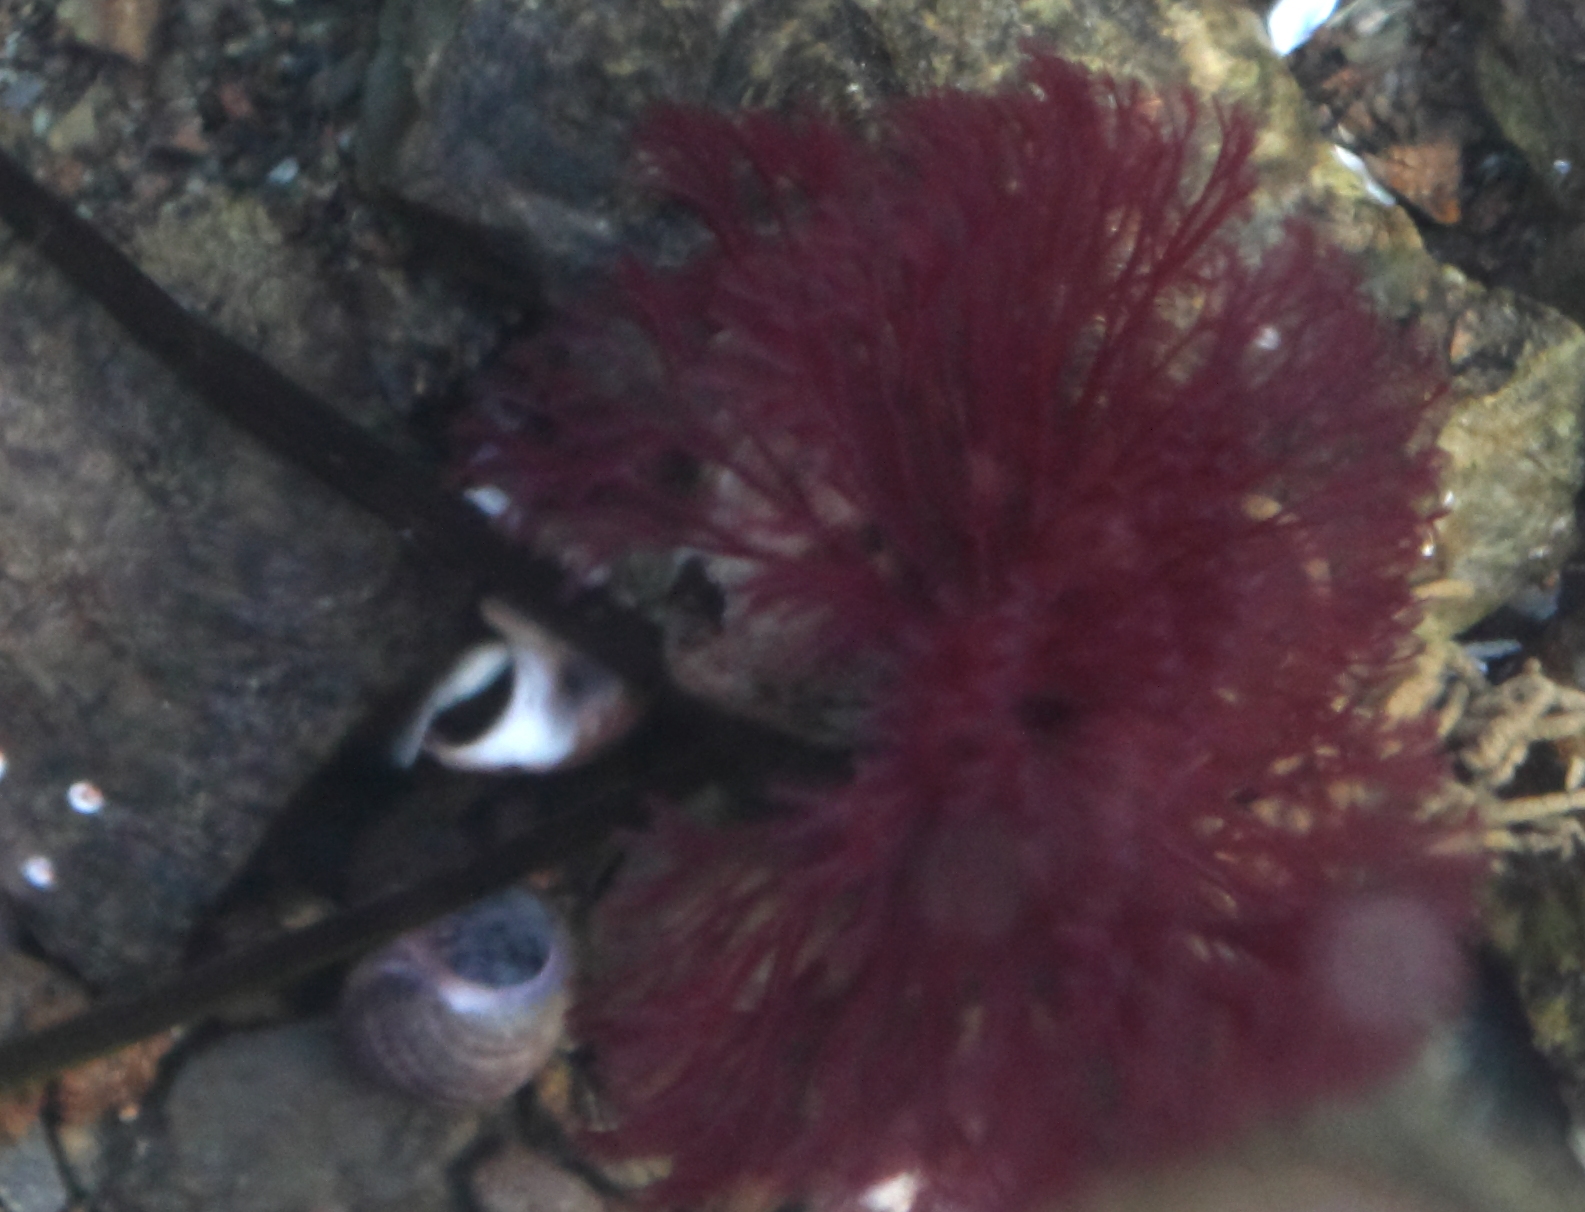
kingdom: Animalia
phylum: Annelida
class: Polychaeta
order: Sabellida
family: Sabellidae
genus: Schizobranchia
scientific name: Schizobranchia insignis
